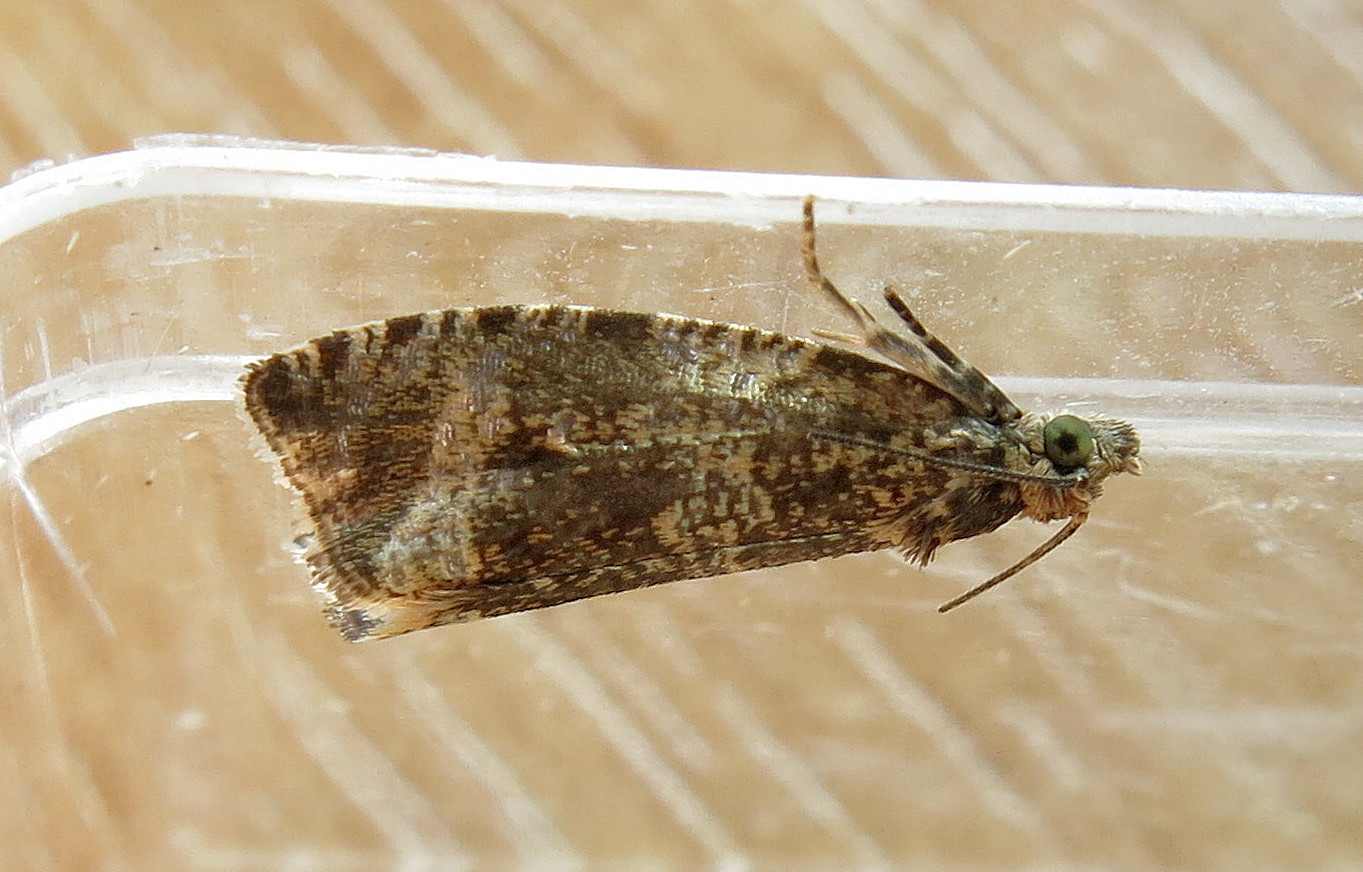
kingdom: Animalia
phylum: Arthropoda
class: Insecta
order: Lepidoptera
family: Tortricidae
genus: Syricoris
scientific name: Syricoris lacunana
